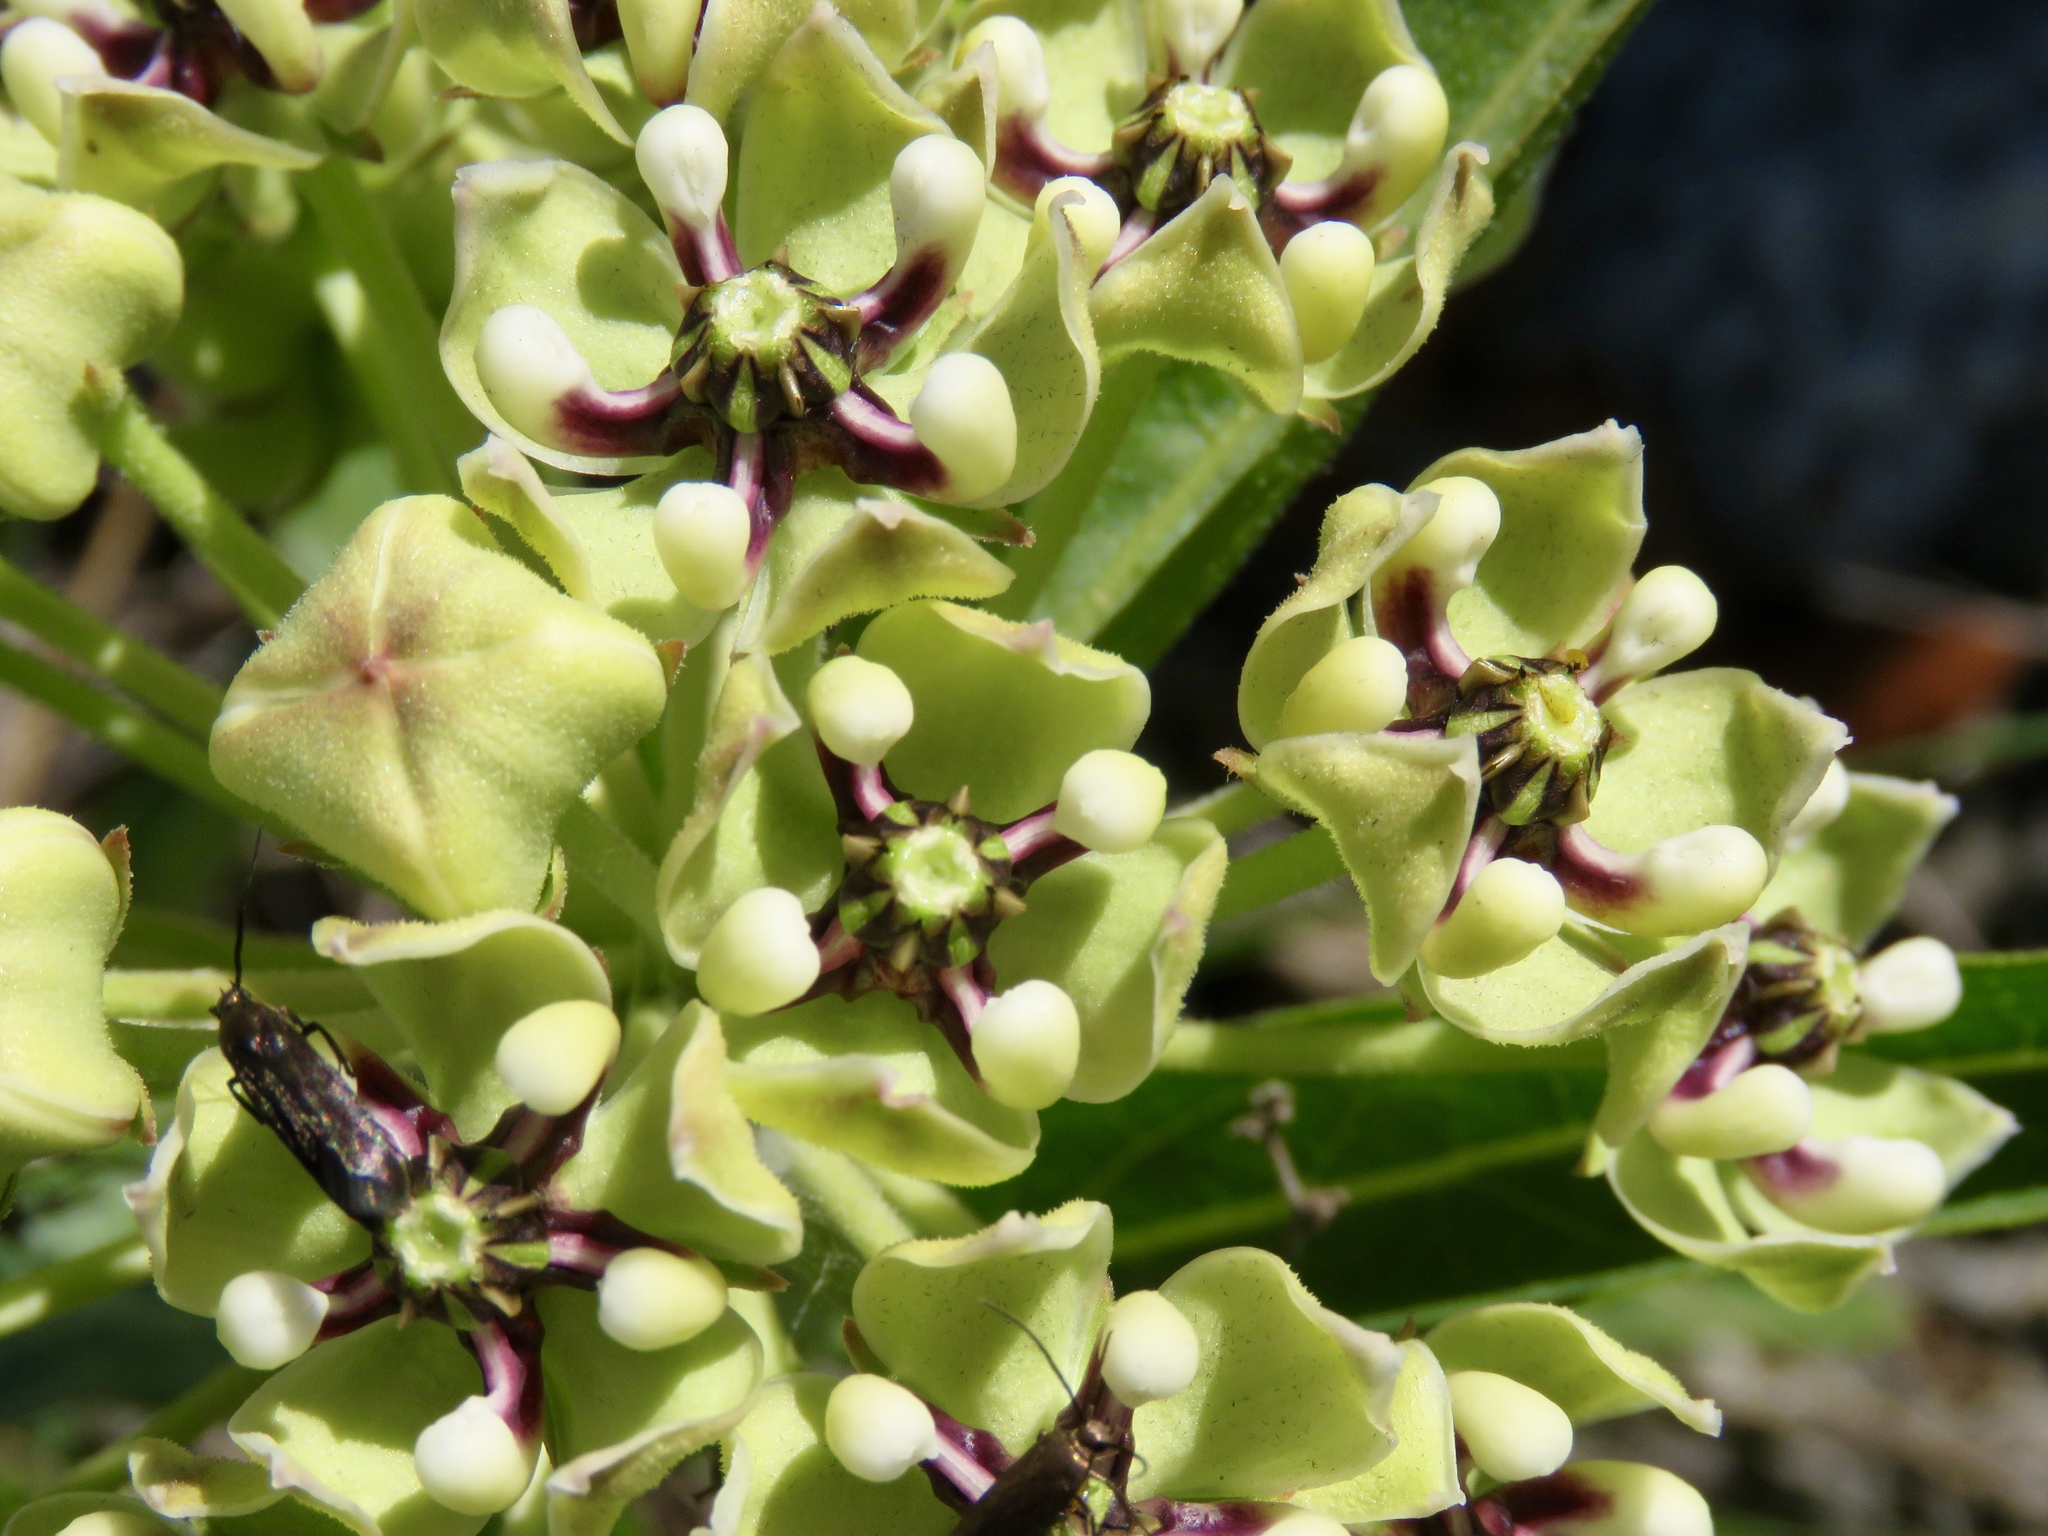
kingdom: Plantae
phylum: Tracheophyta
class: Magnoliopsida
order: Gentianales
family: Apocynaceae
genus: Asclepias
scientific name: Asclepias asperula
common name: Antelope horns
